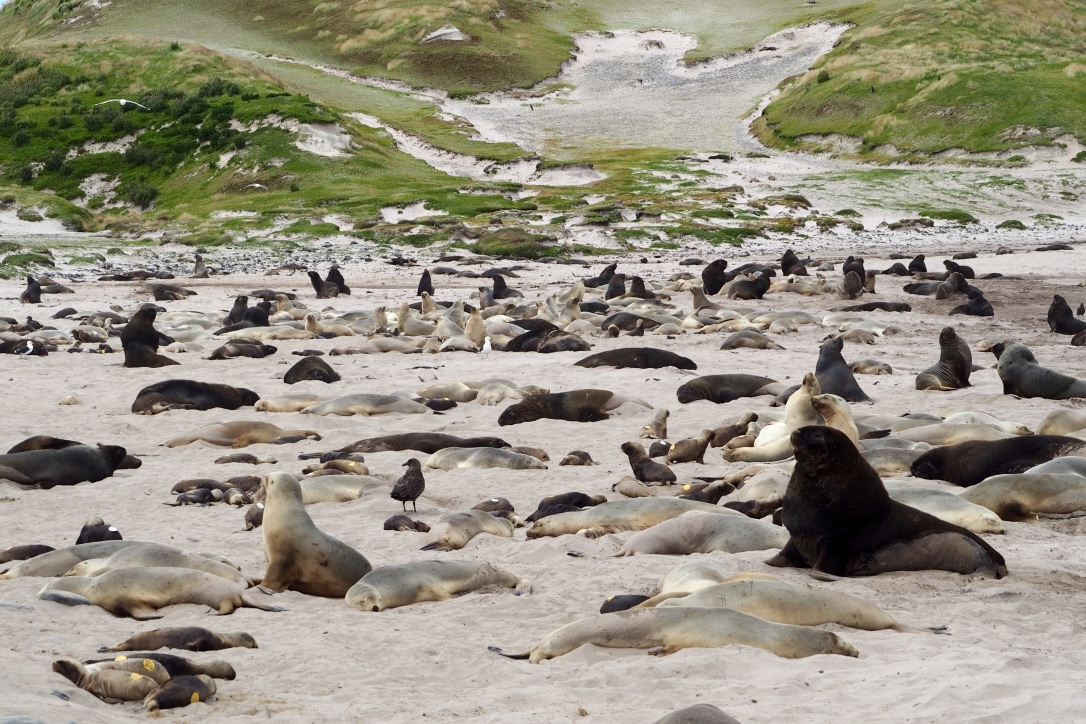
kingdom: Animalia
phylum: Chordata
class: Mammalia
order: Carnivora
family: Otariidae
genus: Phocarctos
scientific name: Phocarctos hookeri
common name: New zealand sea lion
